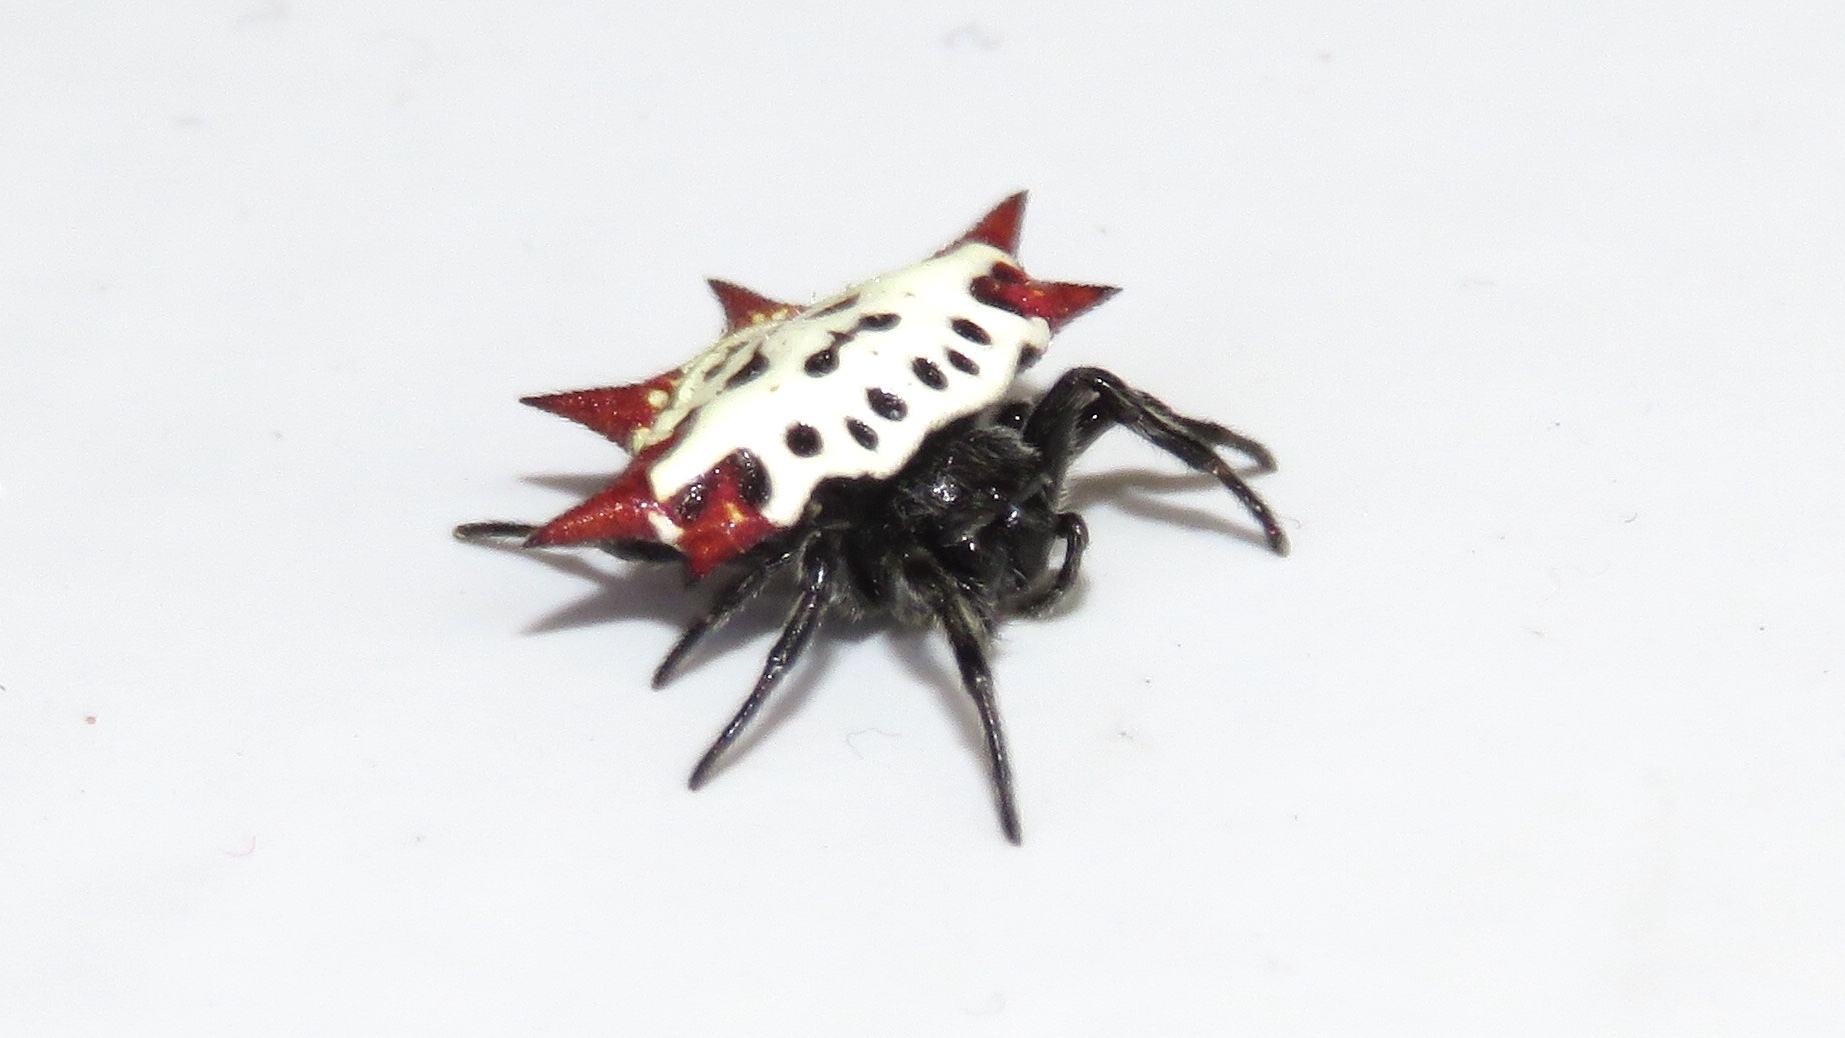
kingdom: Animalia
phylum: Arthropoda
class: Arachnida
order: Araneae
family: Araneidae
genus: Gasteracantha
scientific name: Gasteracantha cancriformis
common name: Orb weavers
